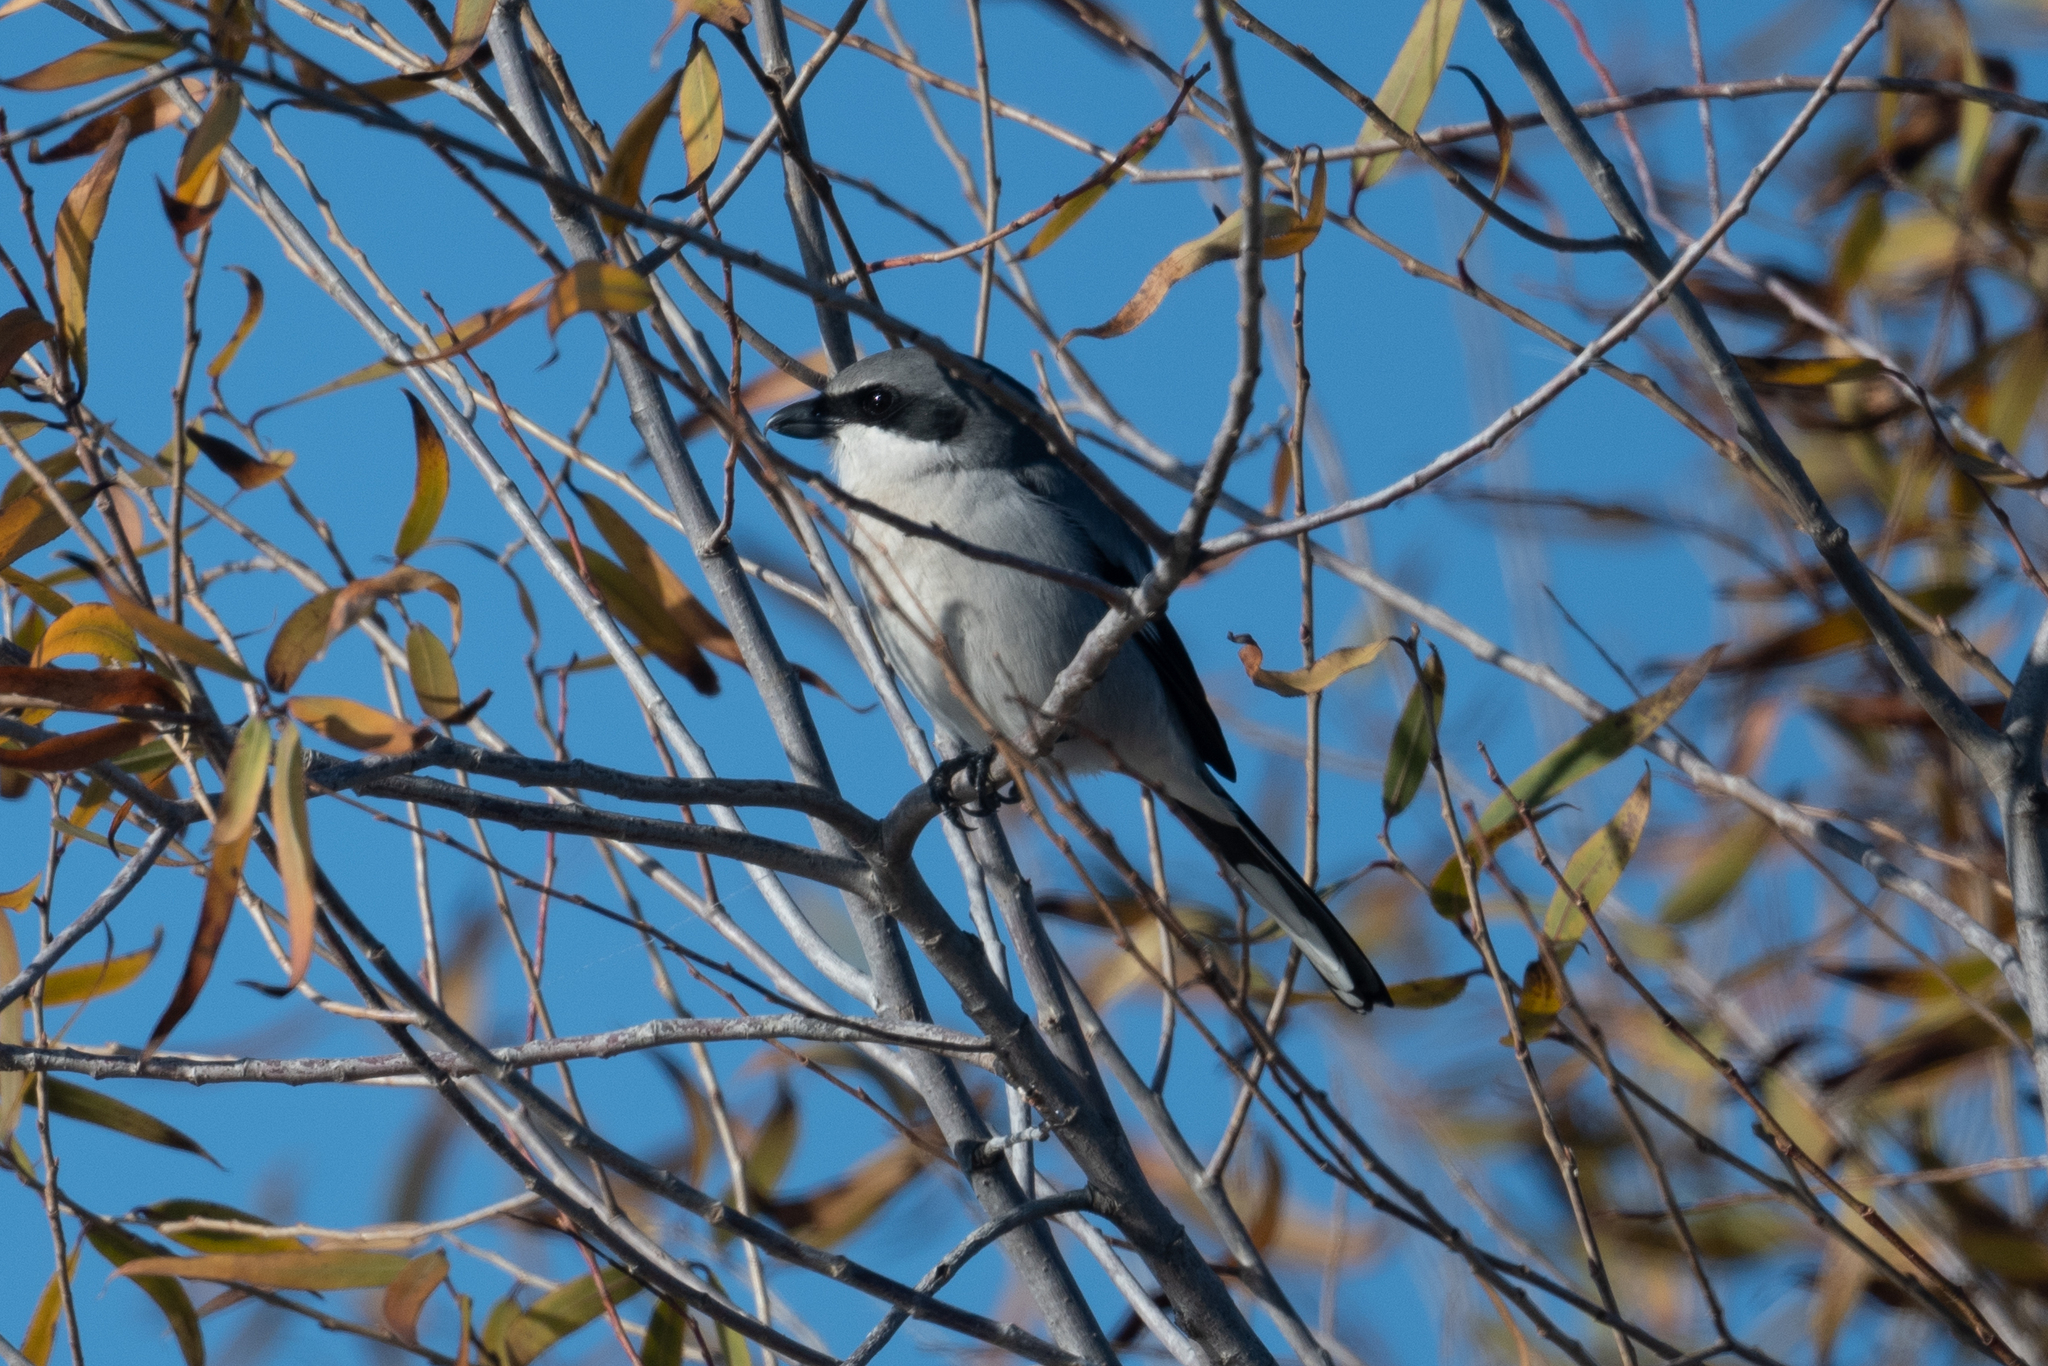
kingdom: Animalia
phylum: Chordata
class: Aves
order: Passeriformes
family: Laniidae
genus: Lanius
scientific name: Lanius ludovicianus
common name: Loggerhead shrike
